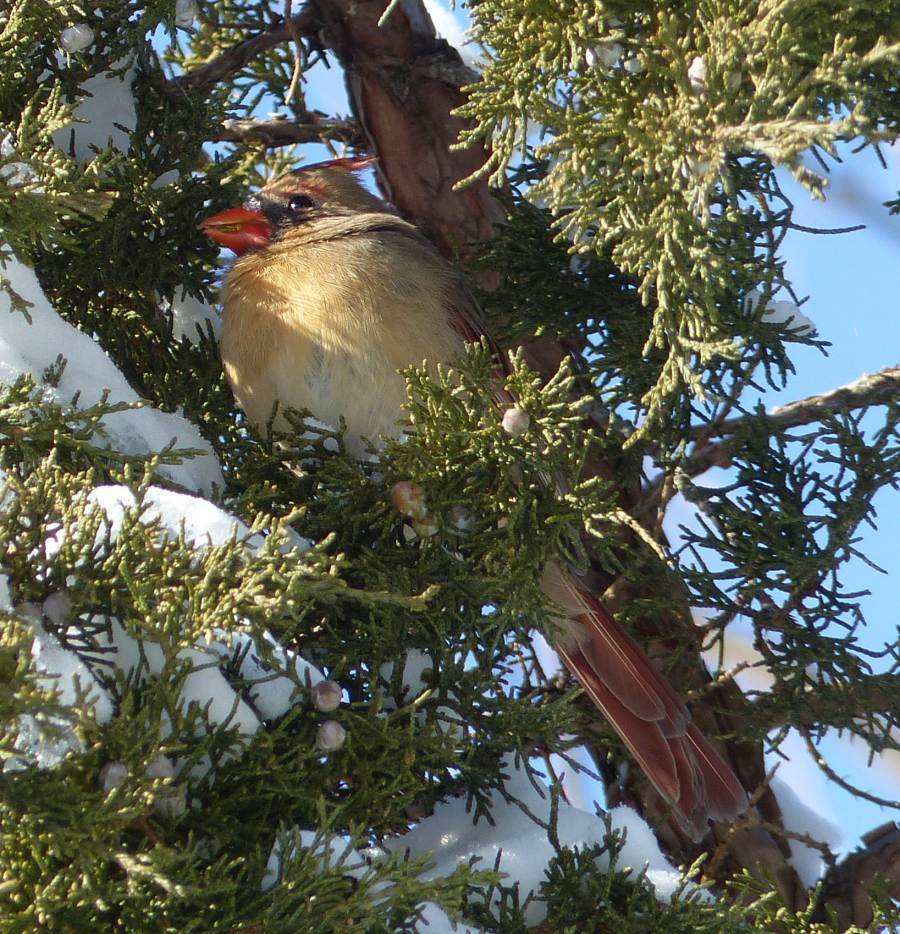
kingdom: Animalia
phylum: Chordata
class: Aves
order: Passeriformes
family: Cardinalidae
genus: Cardinalis
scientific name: Cardinalis cardinalis
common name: Northern cardinal
